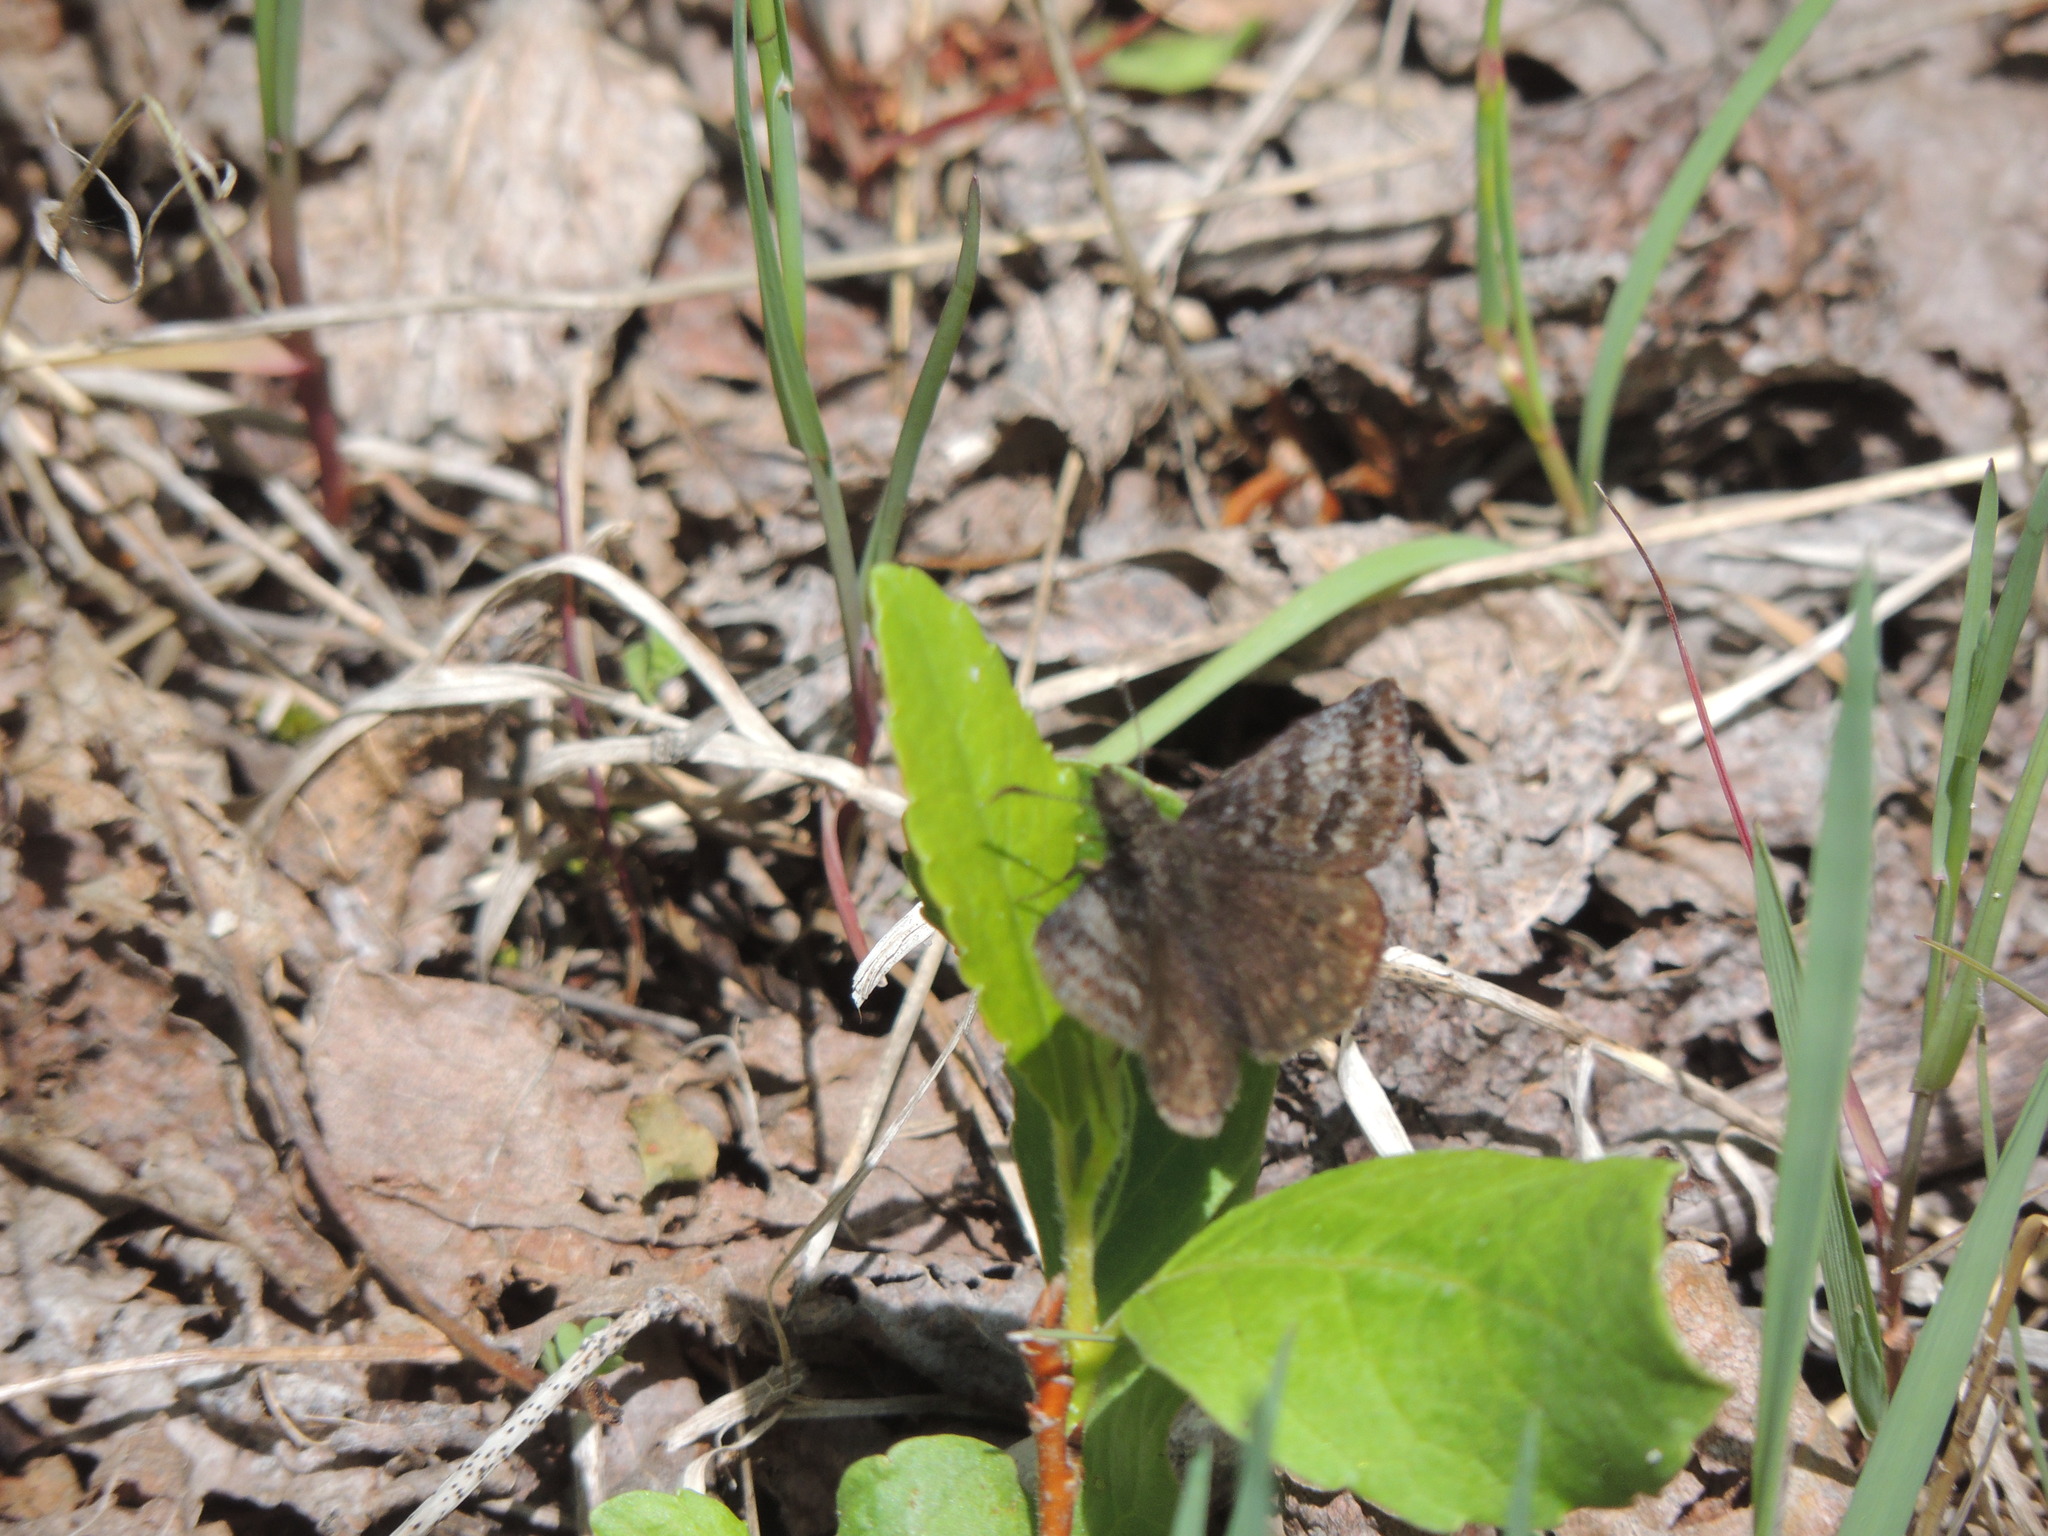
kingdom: Animalia
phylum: Arthropoda
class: Insecta
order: Lepidoptera
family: Hesperiidae
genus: Erynnis
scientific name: Erynnis icelus
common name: Dreamy duskywing
